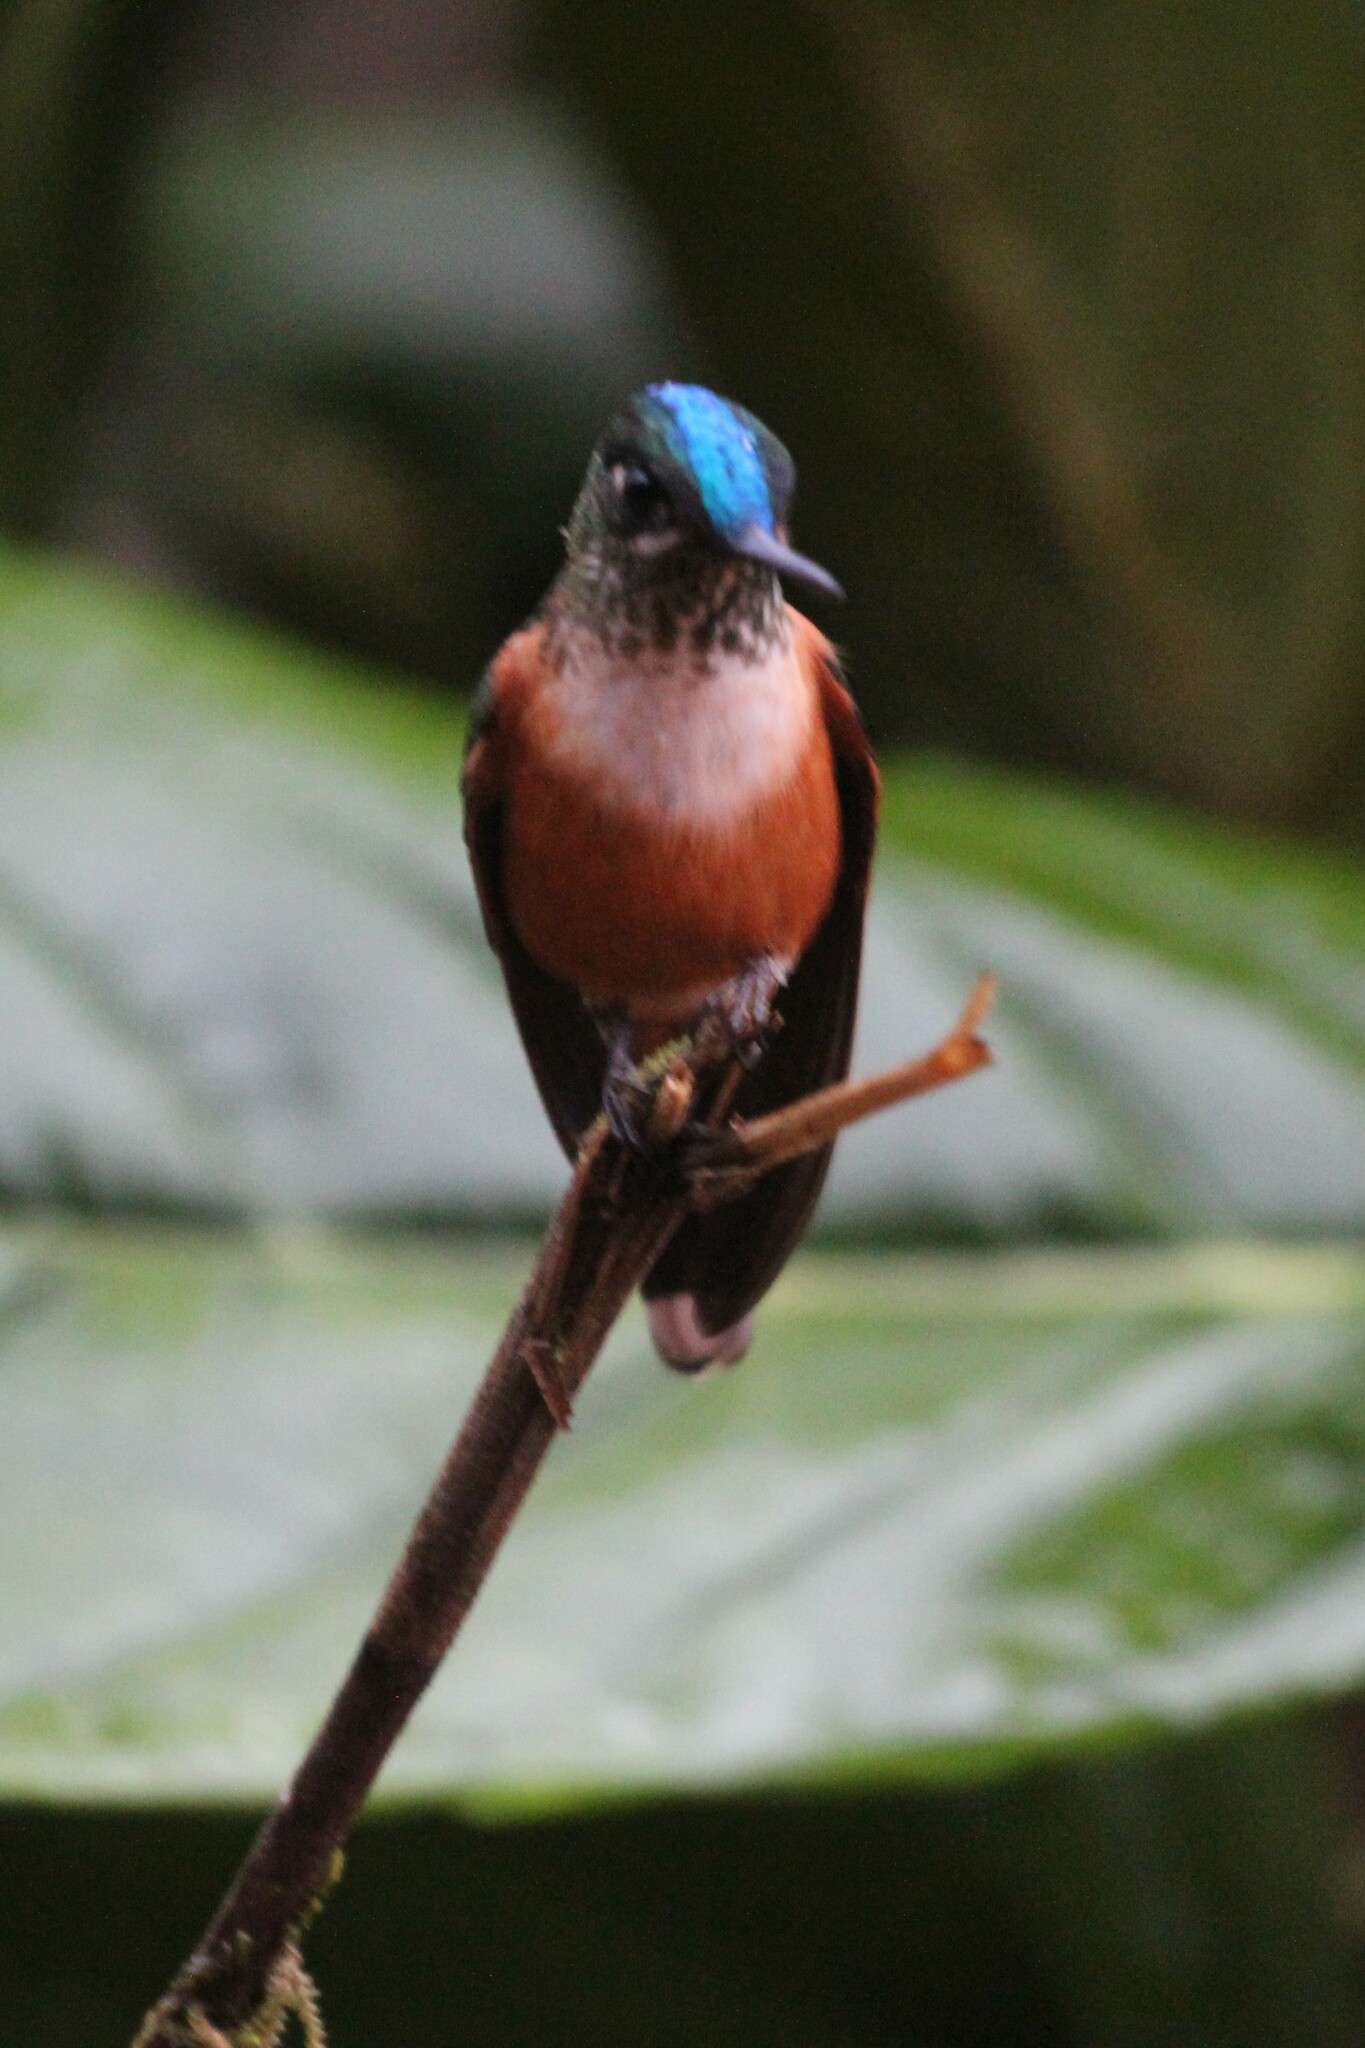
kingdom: Animalia
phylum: Chordata
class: Aves
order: Apodiformes
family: Trochilidae
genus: Aglaiocercus
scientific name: Aglaiocercus coelestis
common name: Violet-tailed sylph
